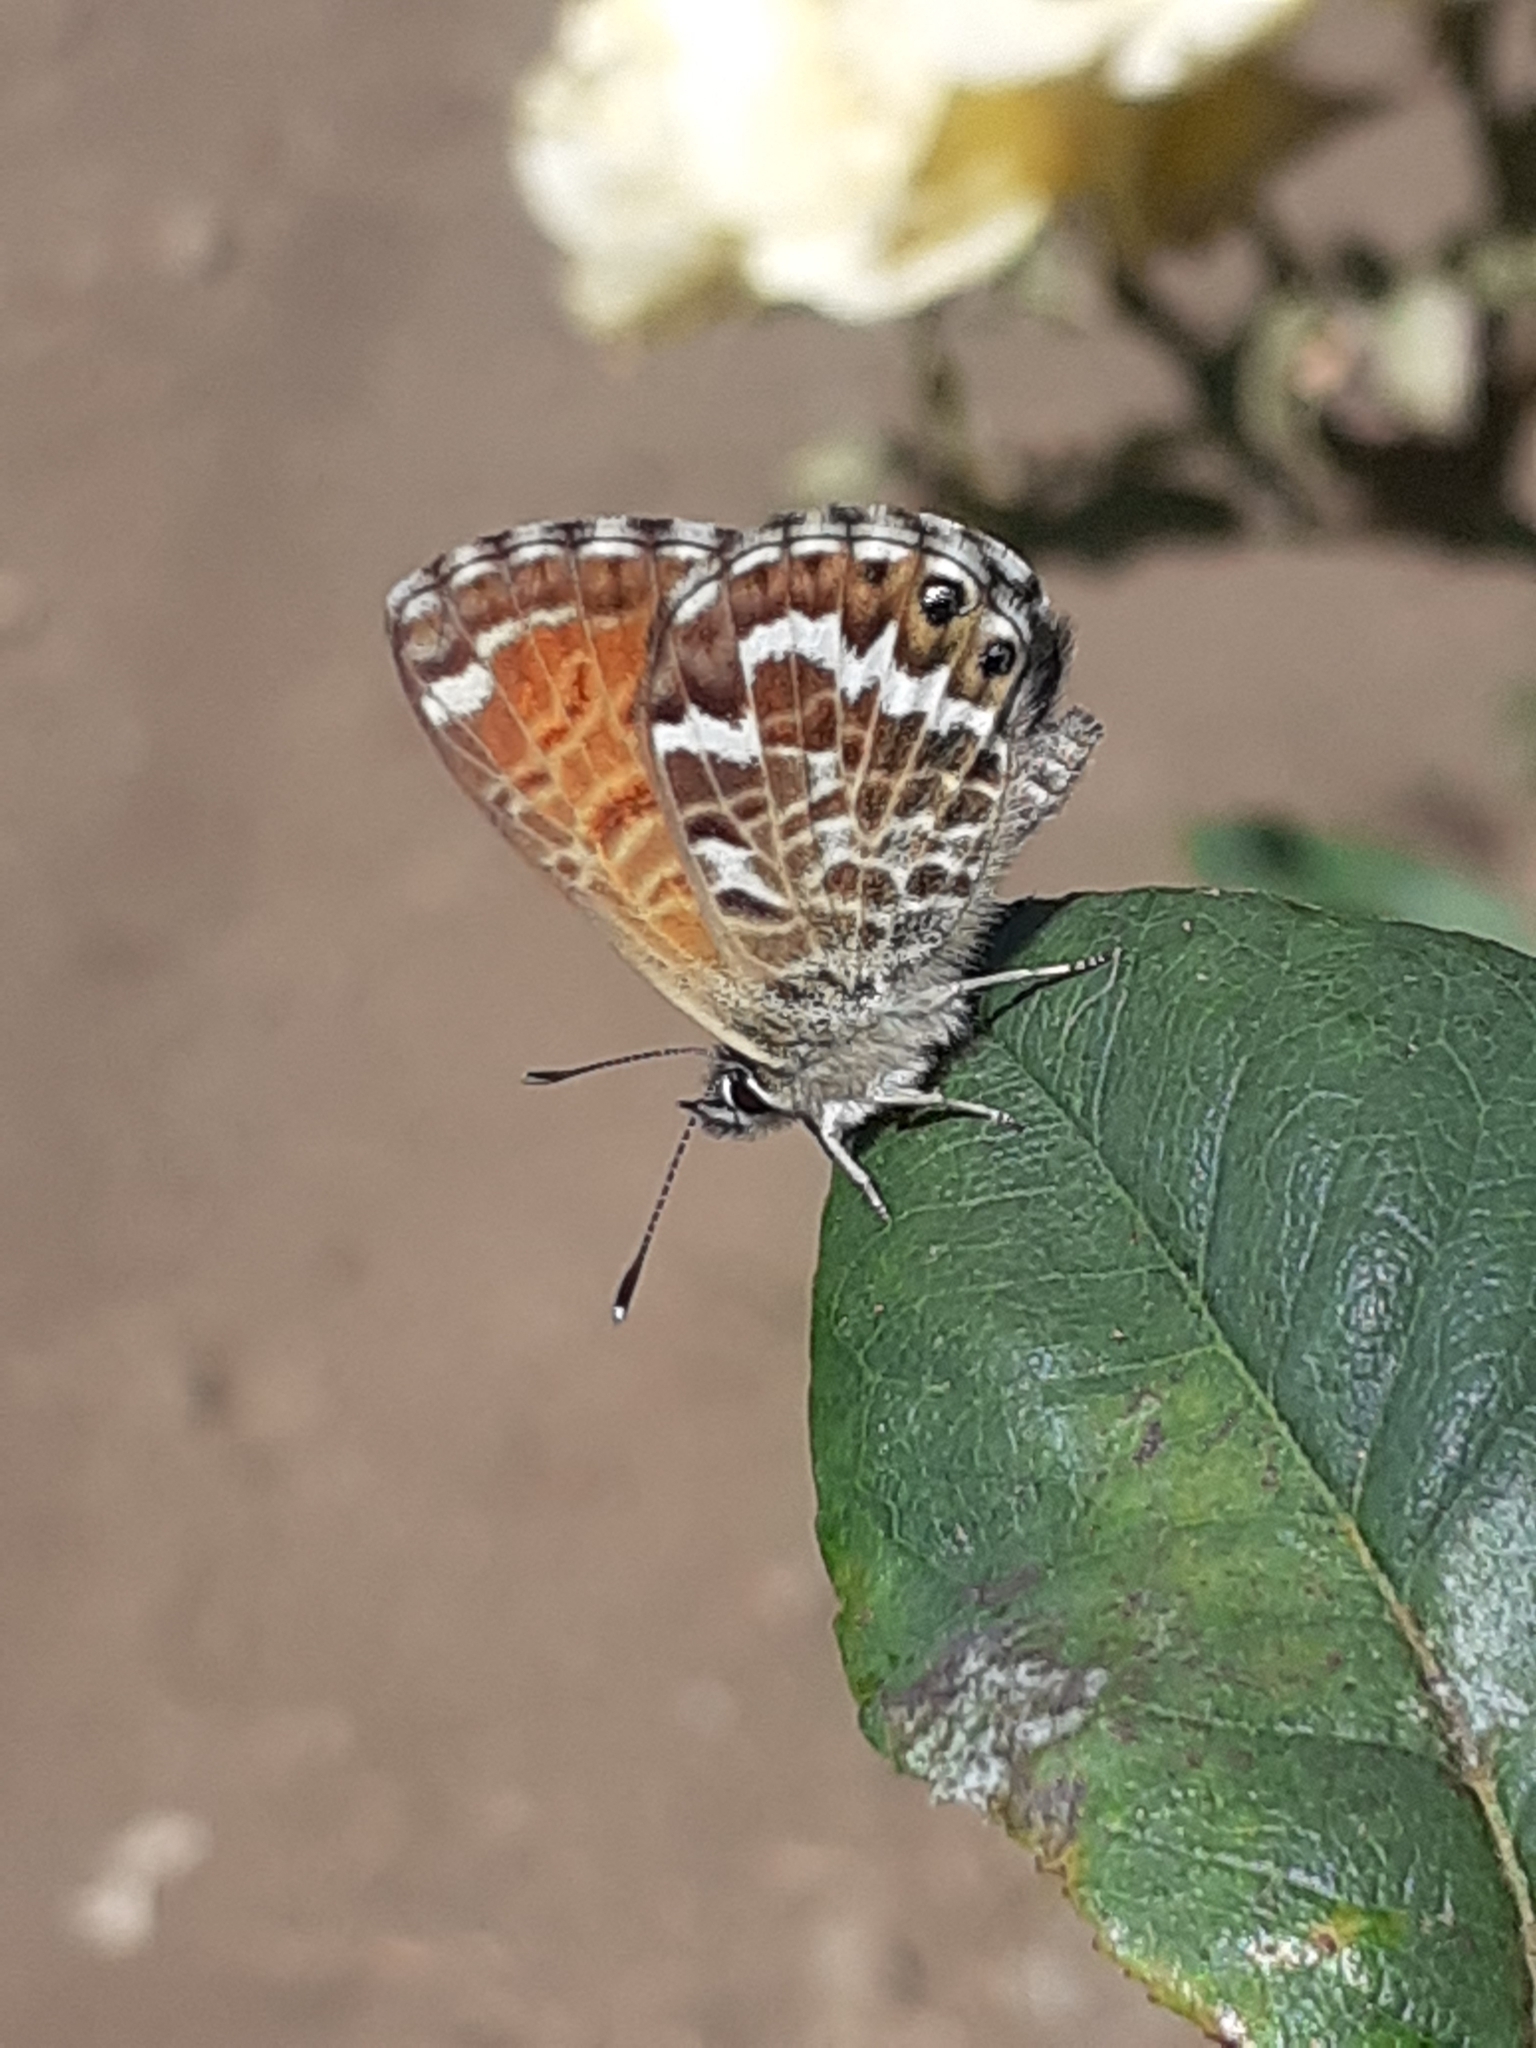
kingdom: Animalia
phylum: Arthropoda
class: Insecta
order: Lepidoptera
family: Lycaenidae
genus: Cyclyrius
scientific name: Cyclyrius webbianus
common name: Canary blue
